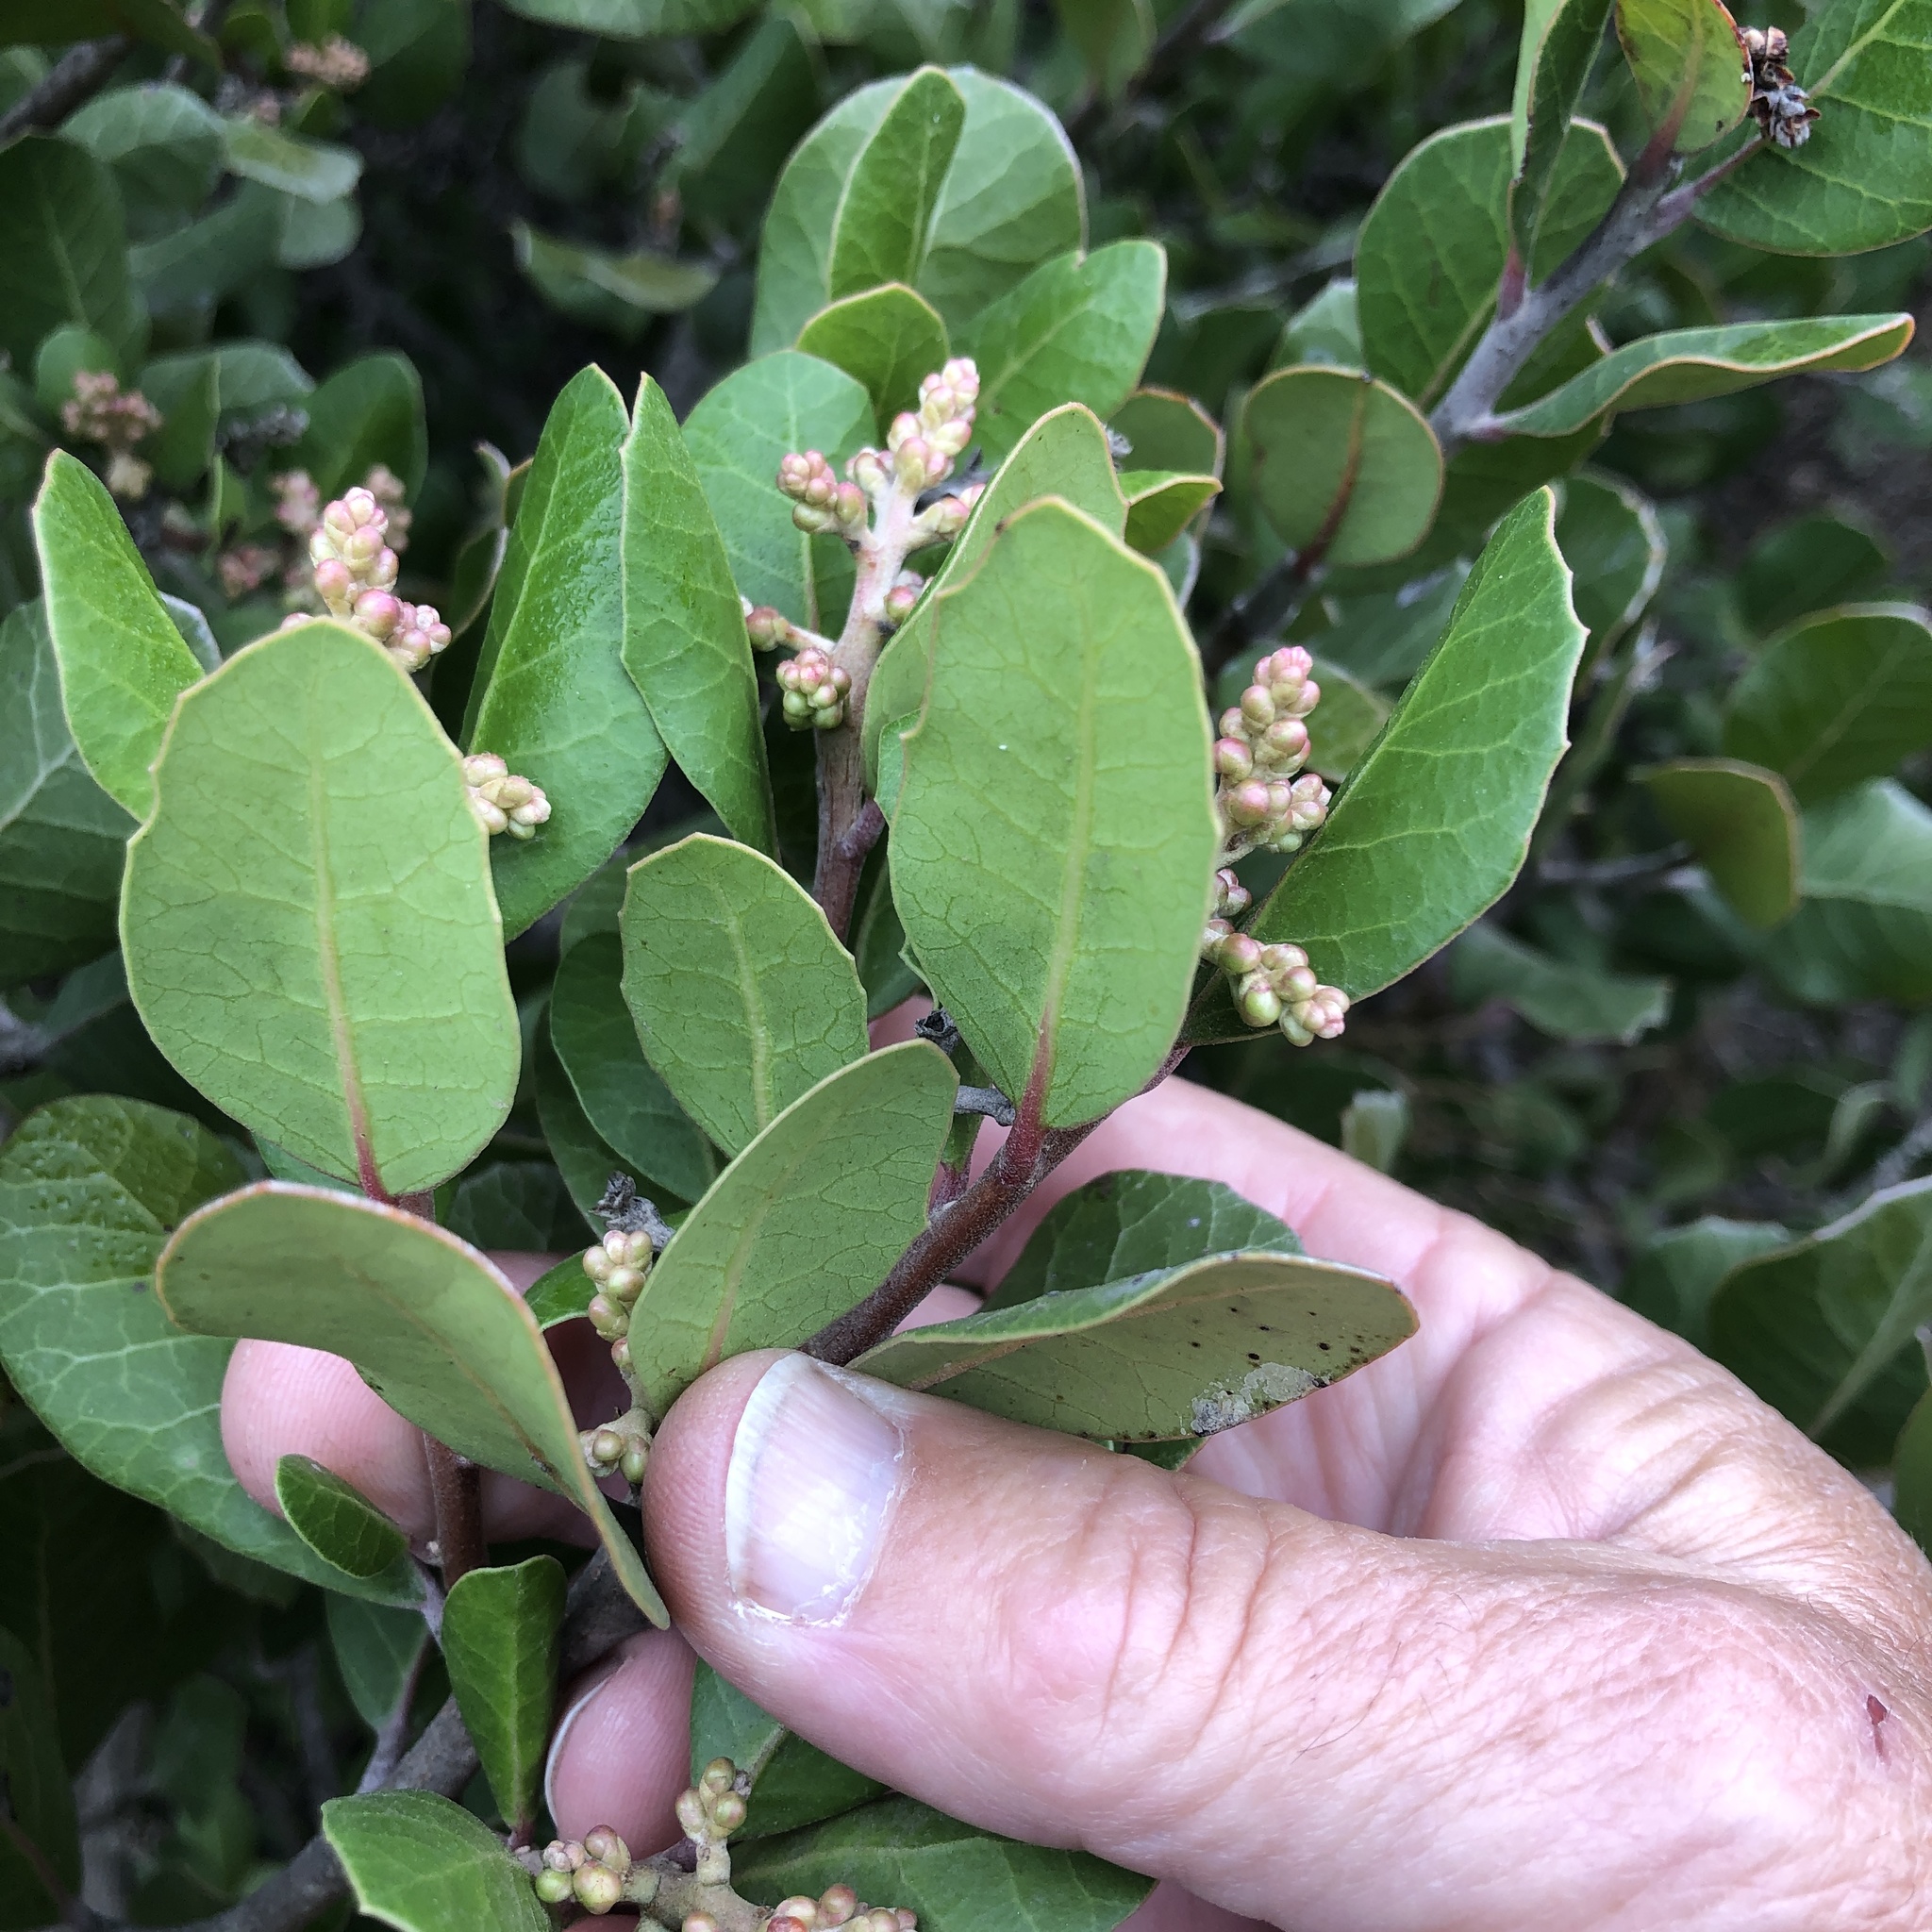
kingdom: Plantae
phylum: Tracheophyta
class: Magnoliopsida
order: Sapindales
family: Anacardiaceae
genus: Rhus
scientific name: Rhus integrifolia
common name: Lemonade sumac
